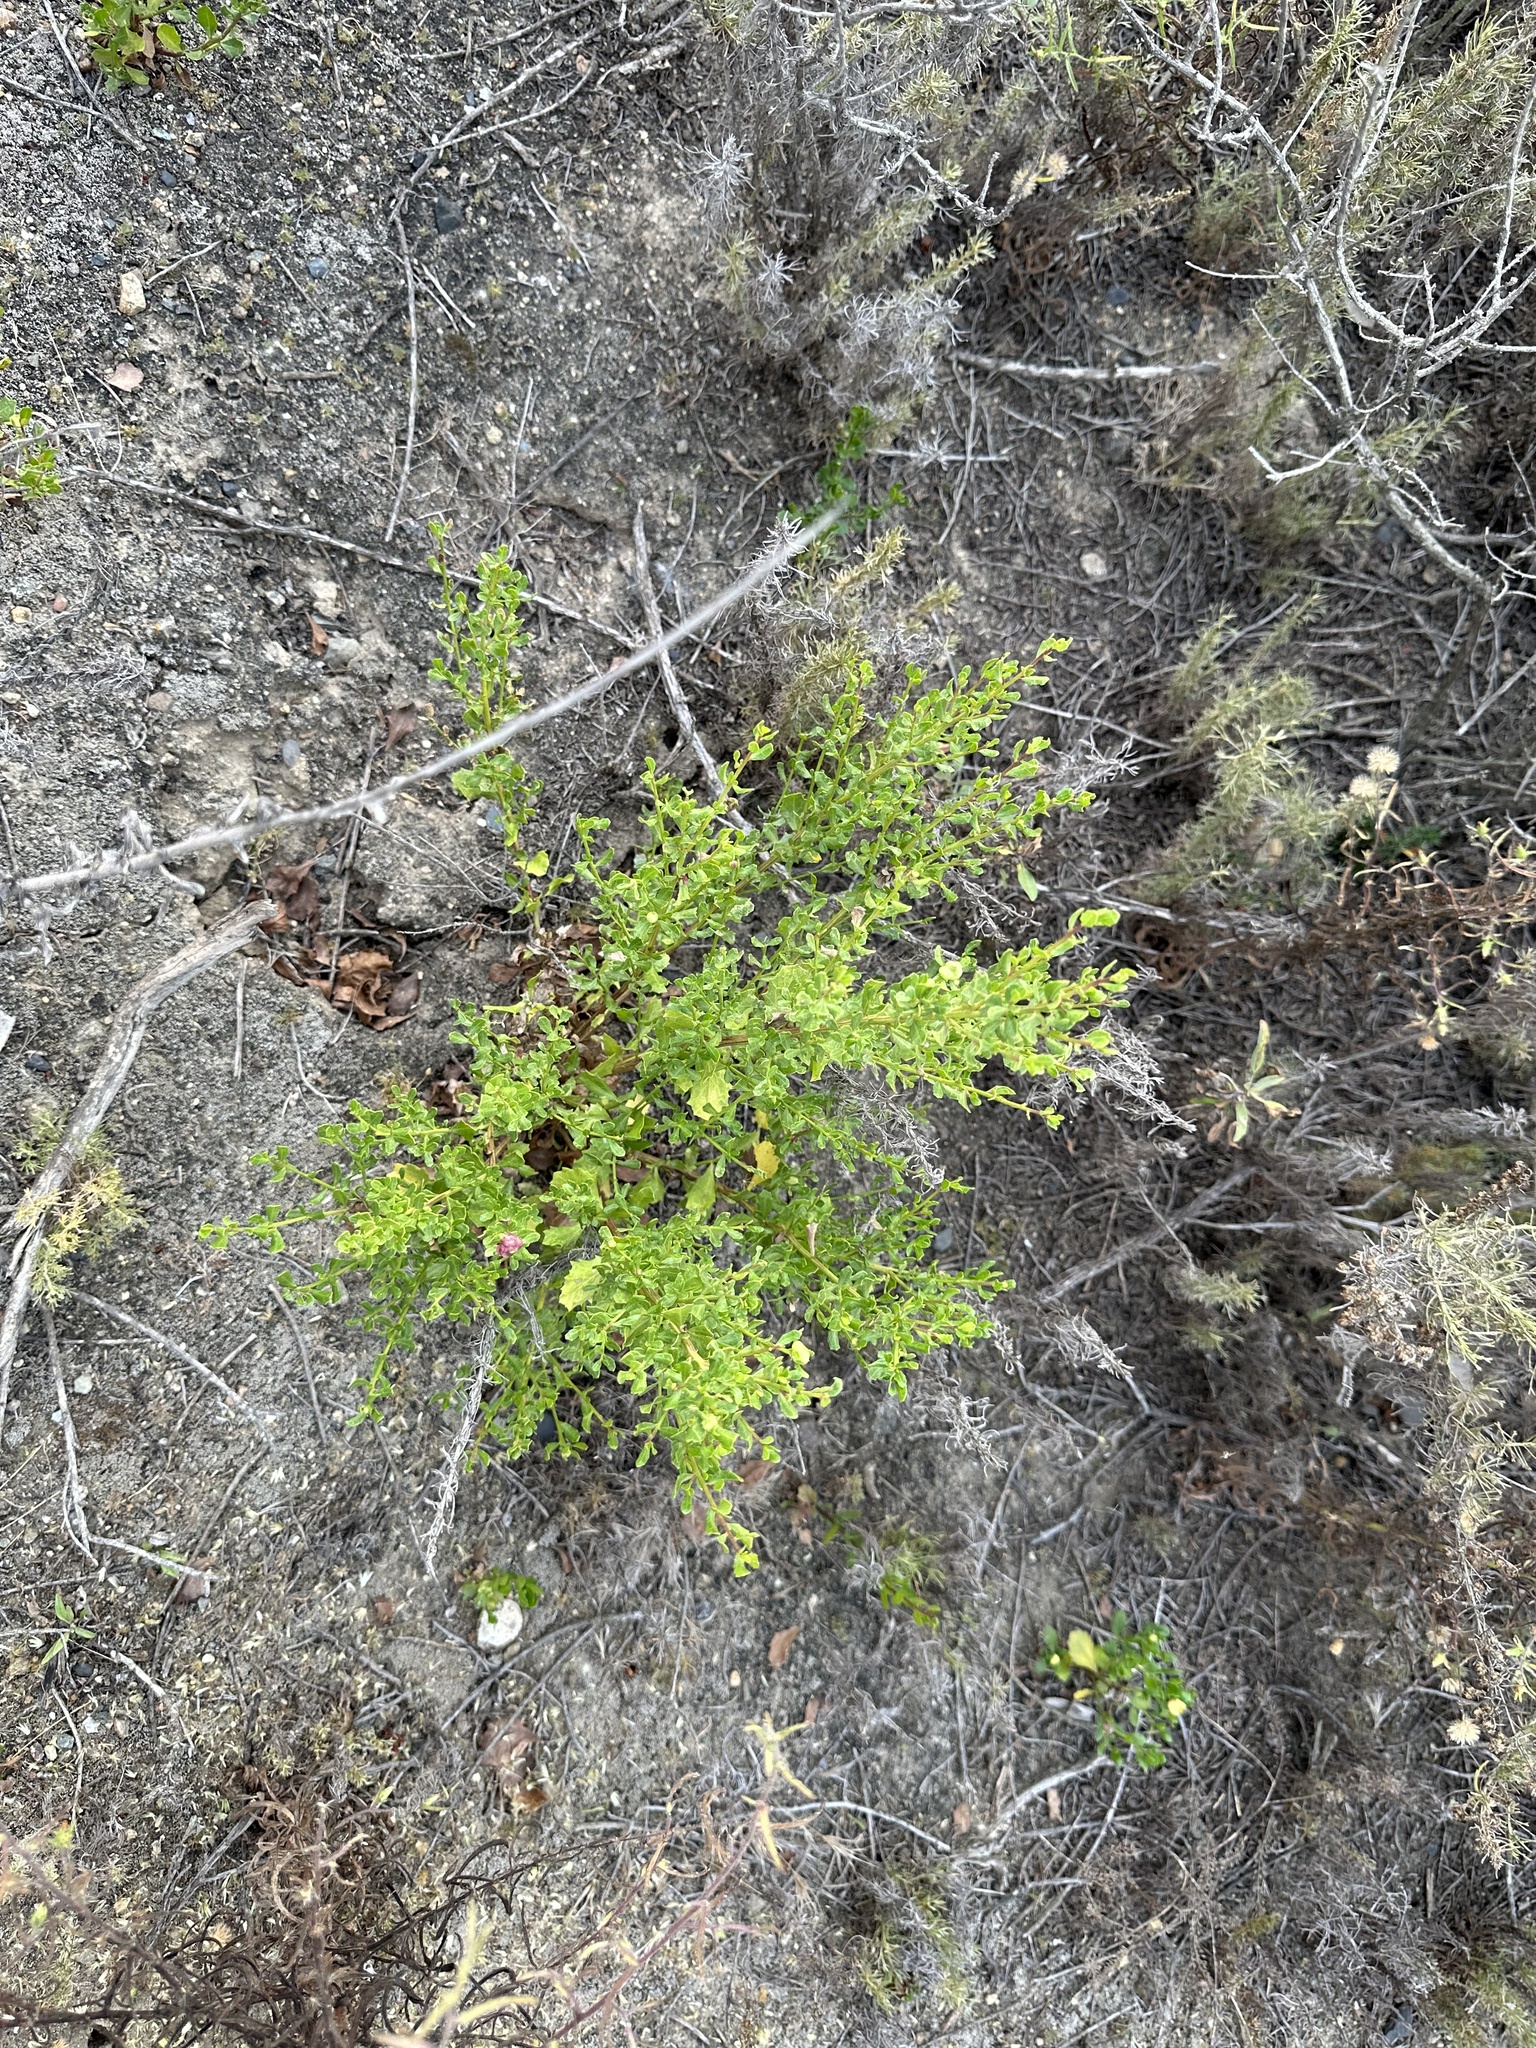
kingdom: Animalia
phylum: Arthropoda
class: Insecta
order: Diptera
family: Cecidomyiidae
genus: Rhopalomyia
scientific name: Rhopalomyia californica
